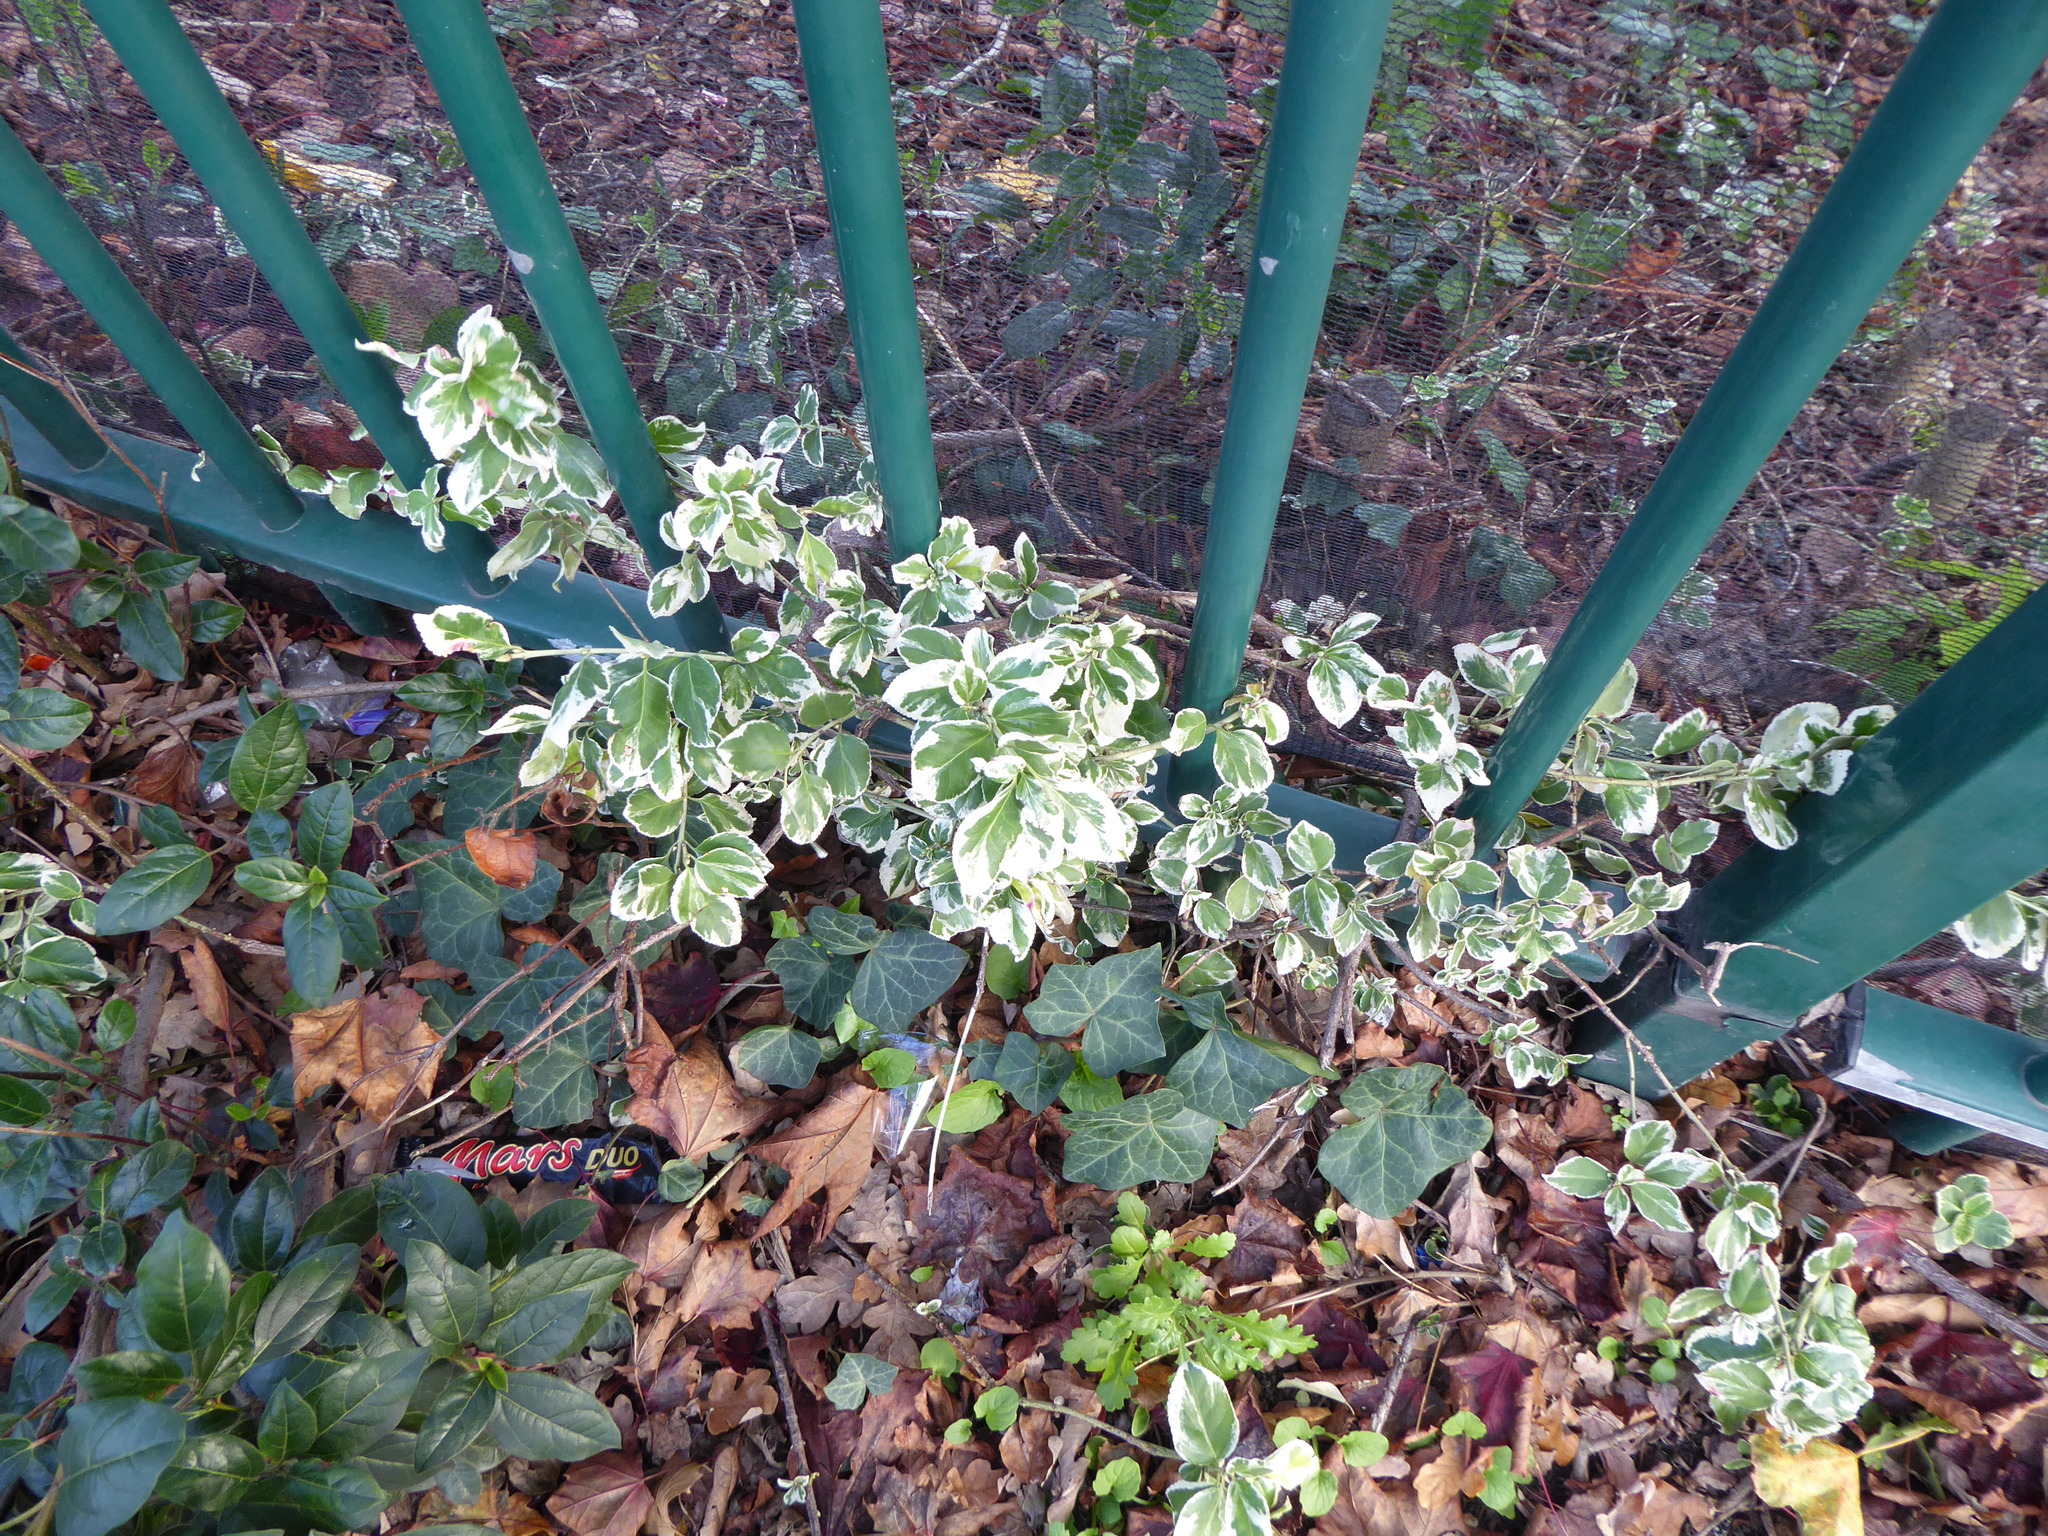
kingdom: Plantae
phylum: Tracheophyta
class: Magnoliopsida
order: Celastrales
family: Celastraceae
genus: Euonymus
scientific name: Euonymus fortunei
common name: Climbing euonymus
